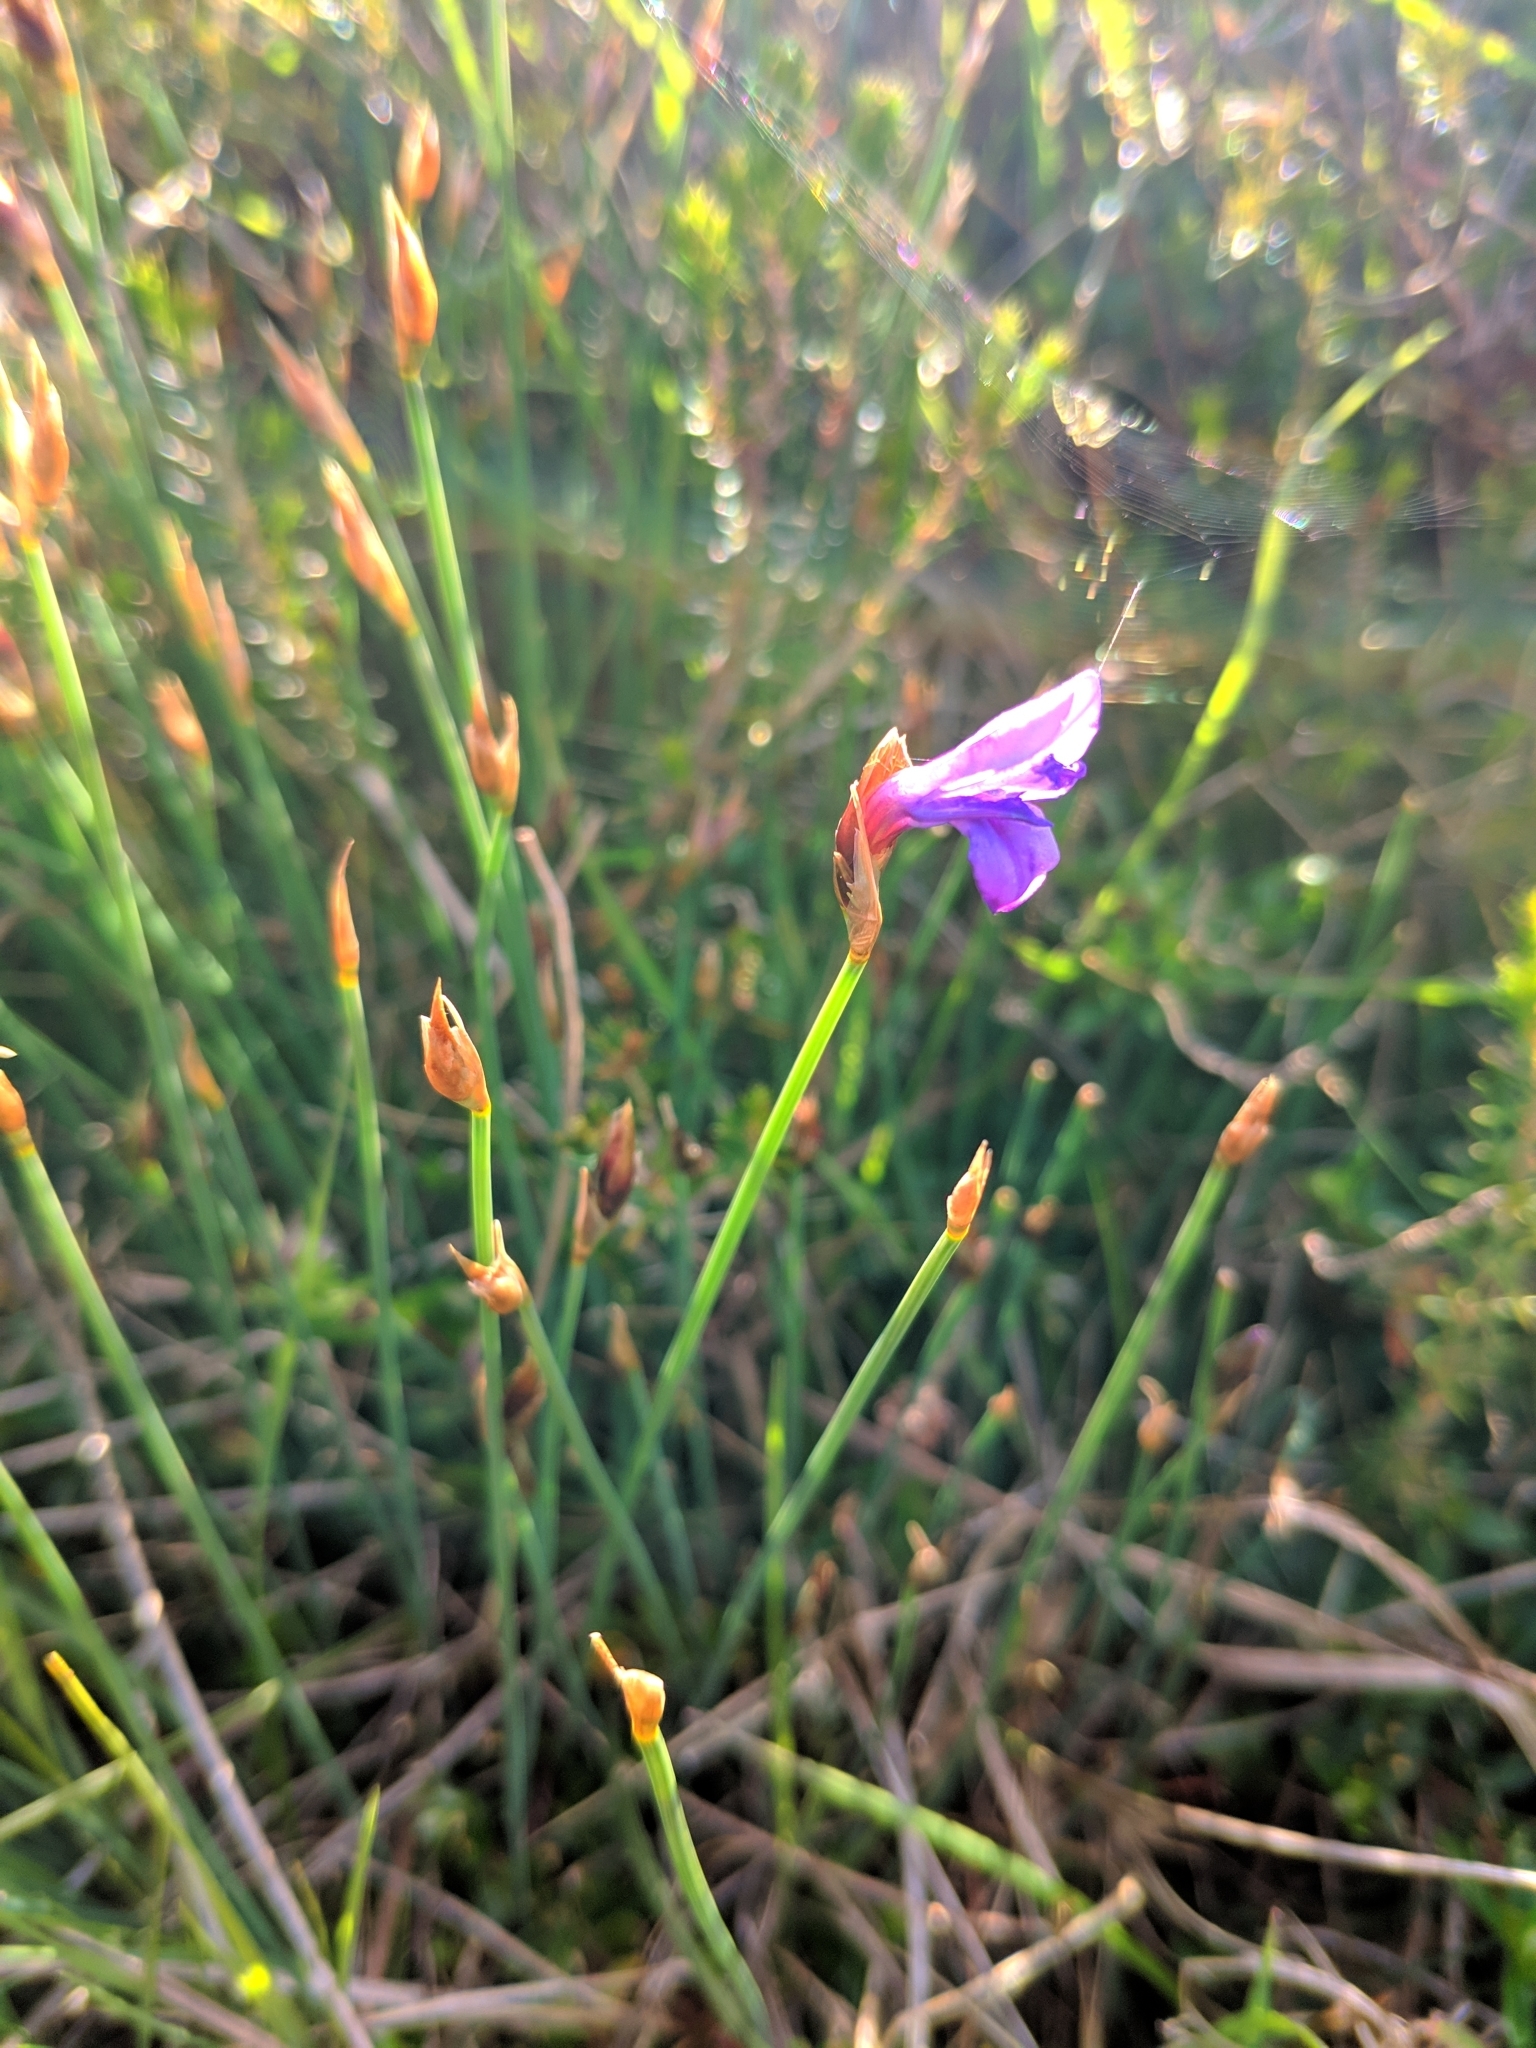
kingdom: Plantae
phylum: Tracheophyta
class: Liliopsida
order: Asparagales
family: Asparagaceae
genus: Aphyllanthes
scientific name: Aphyllanthes monspeliensis
